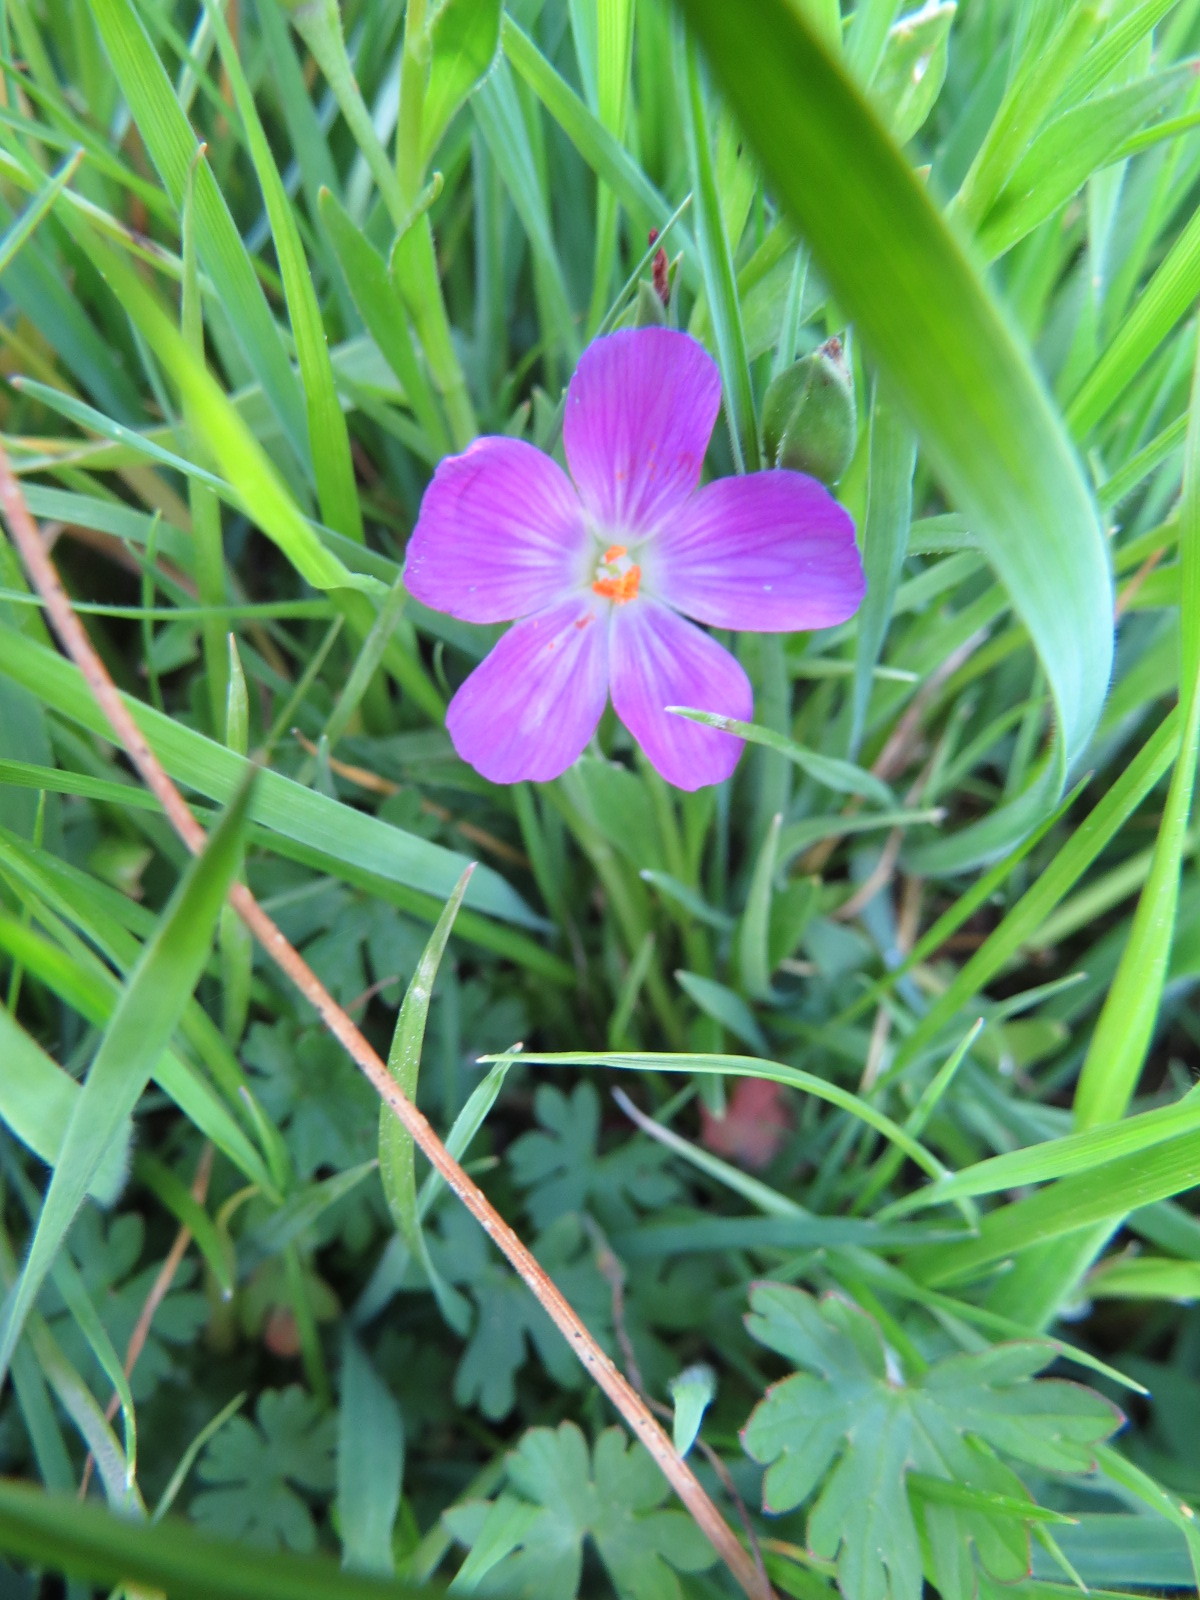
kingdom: Plantae
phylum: Tracheophyta
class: Magnoliopsida
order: Caryophyllales
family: Montiaceae
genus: Calandrinia
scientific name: Calandrinia menziesii
